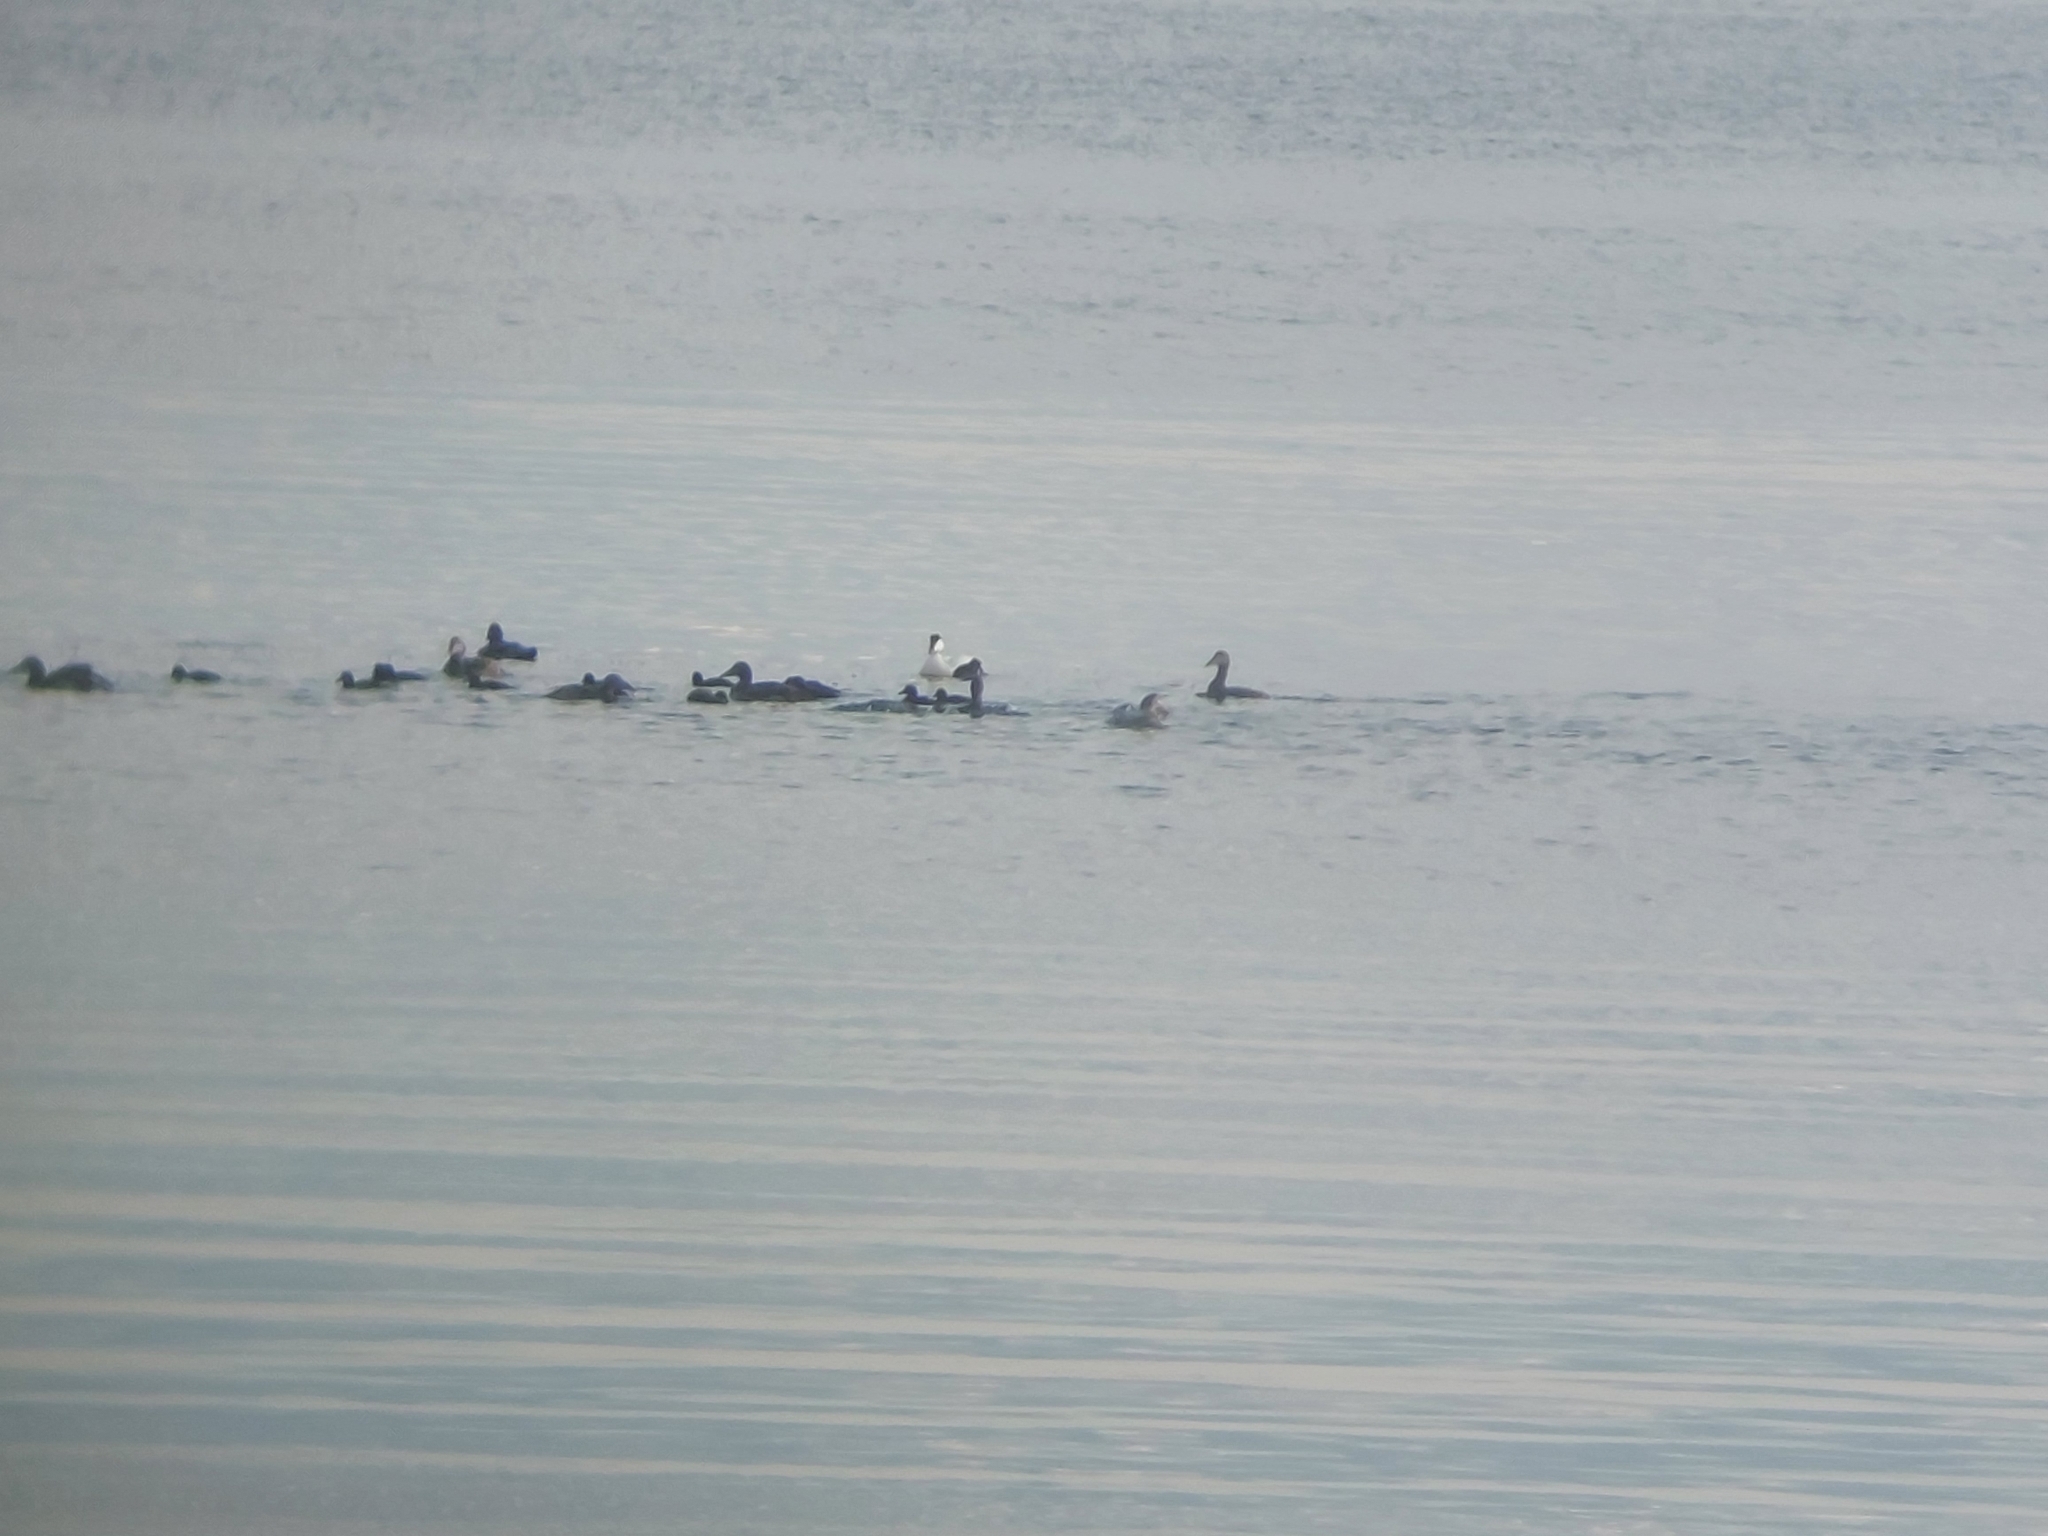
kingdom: Animalia
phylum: Chordata
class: Aves
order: Anseriformes
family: Anatidae
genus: Somateria
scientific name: Somateria mollissima
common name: Common eider
